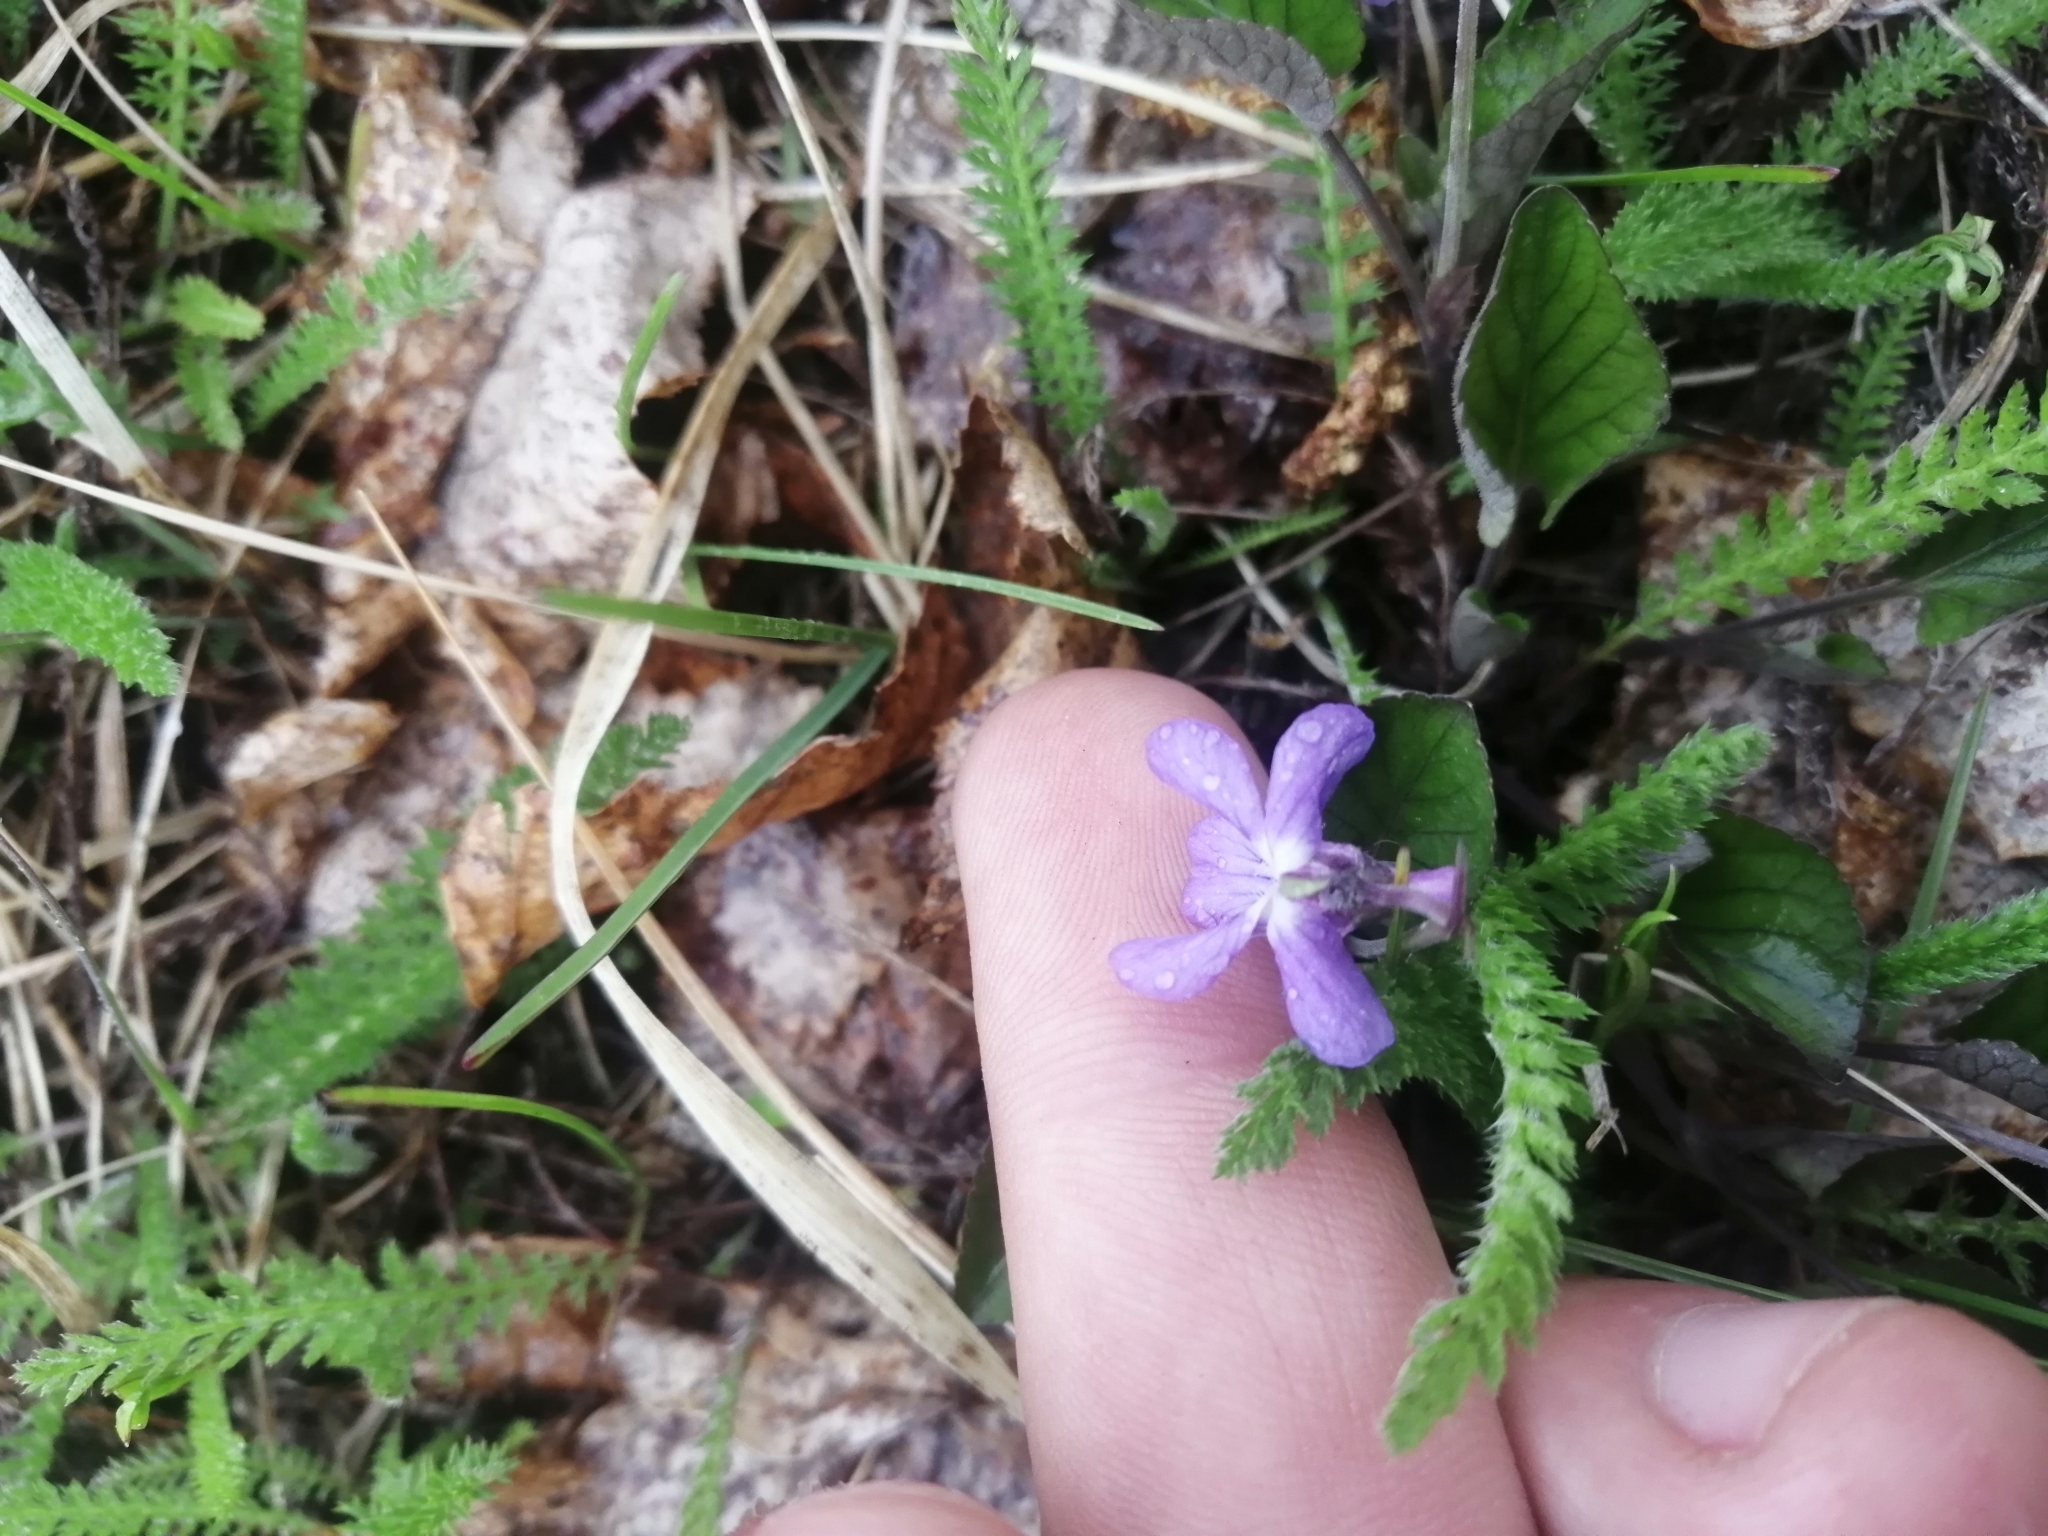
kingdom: Plantae
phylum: Tracheophyta
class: Magnoliopsida
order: Malpighiales
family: Violaceae
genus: Viola
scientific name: Viola rupestris
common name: Teesdale violet
